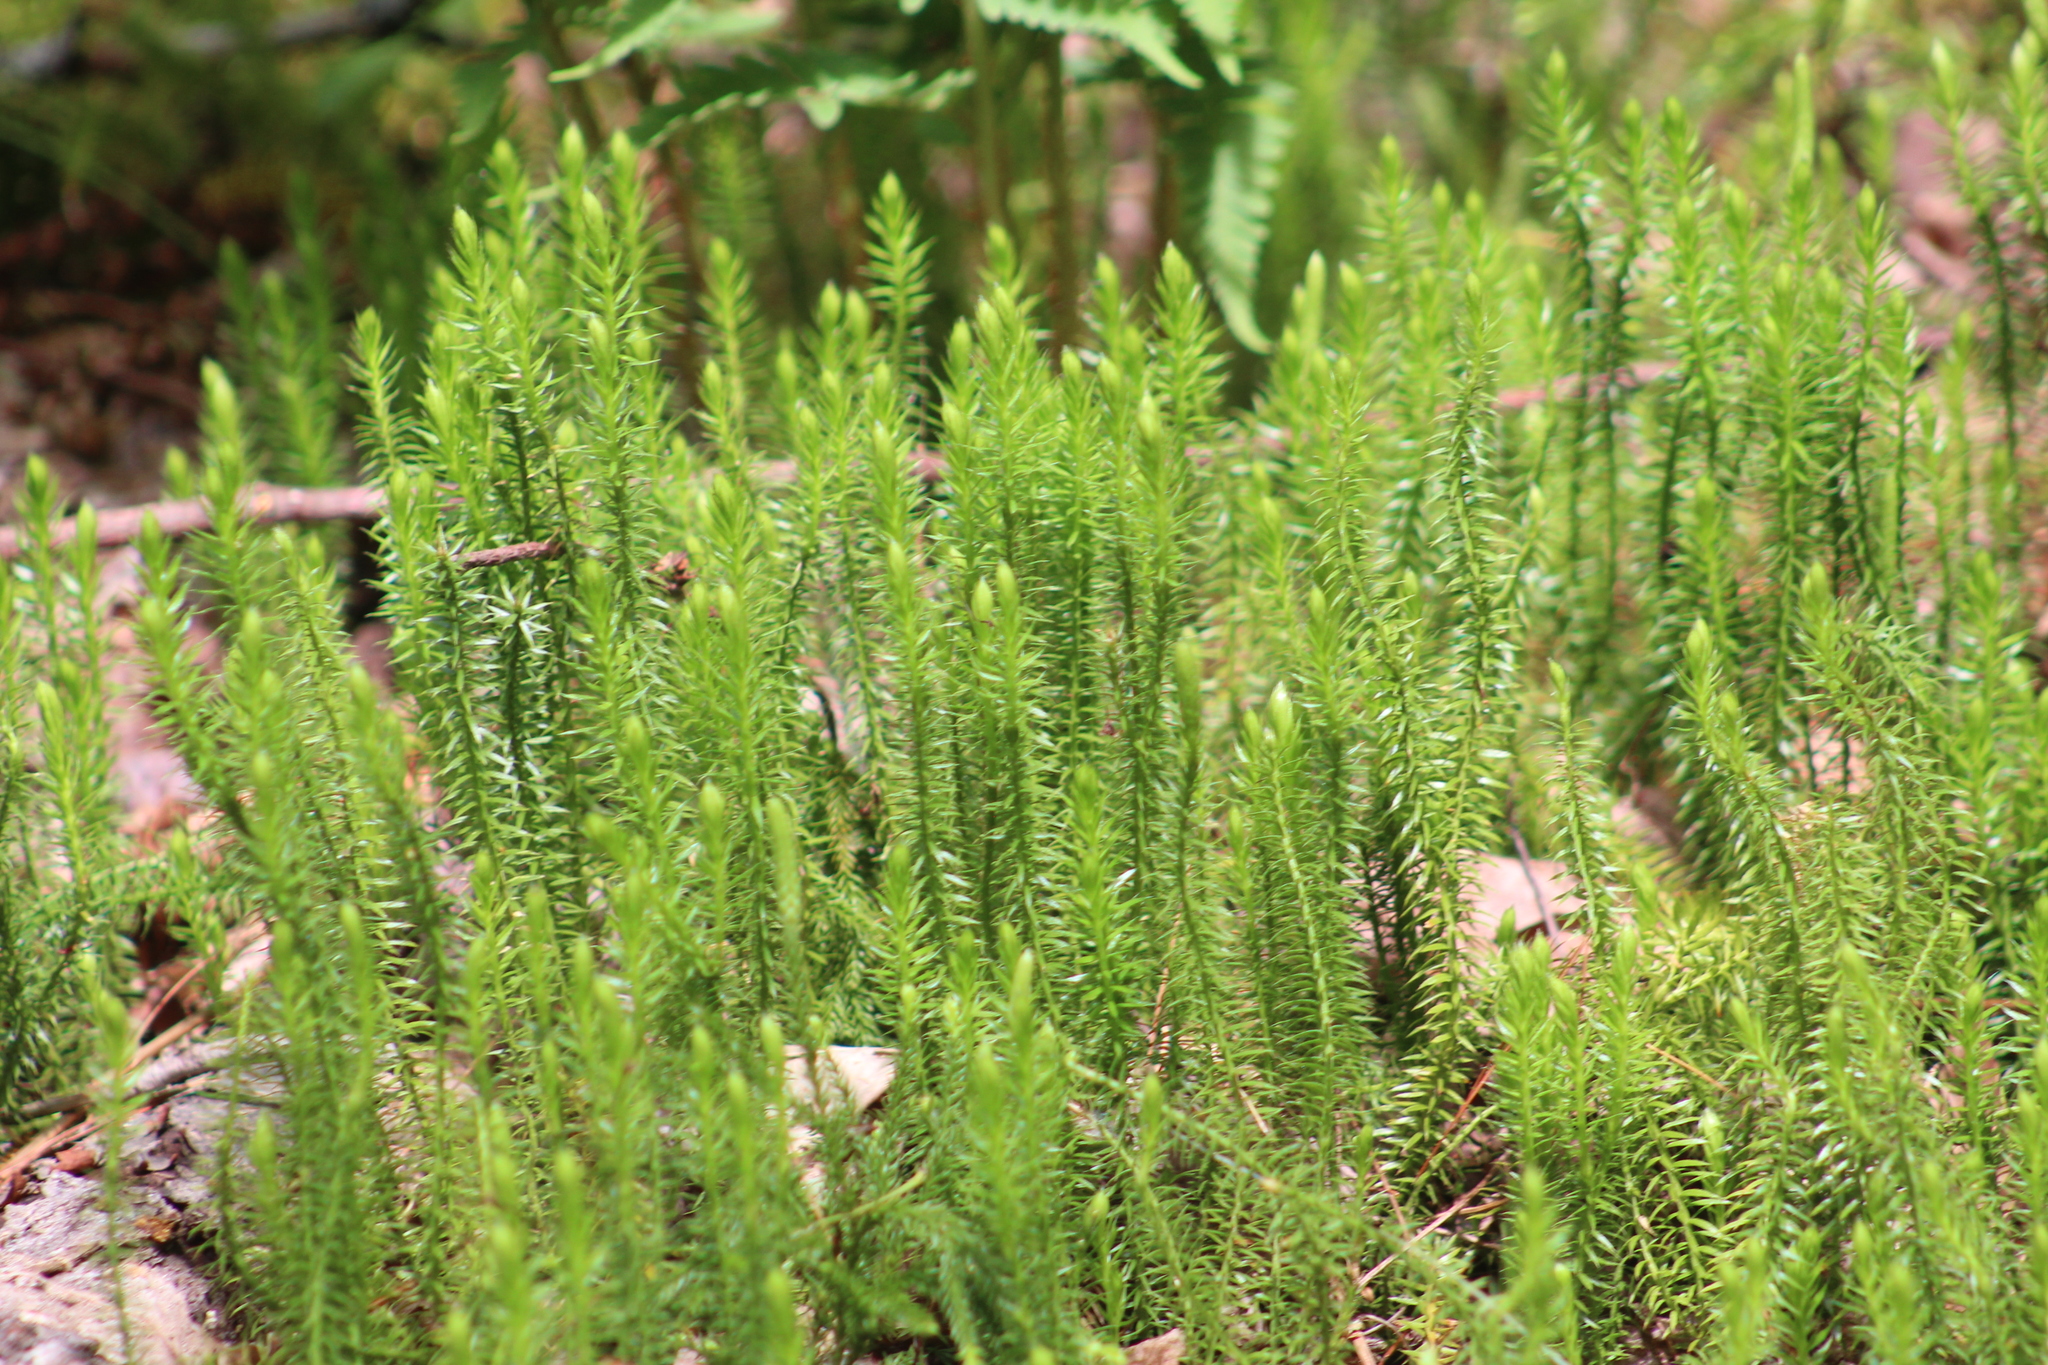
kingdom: Plantae
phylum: Tracheophyta
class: Lycopodiopsida
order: Lycopodiales
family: Lycopodiaceae
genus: Spinulum
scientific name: Spinulum annotinum
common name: Interrupted club-moss
